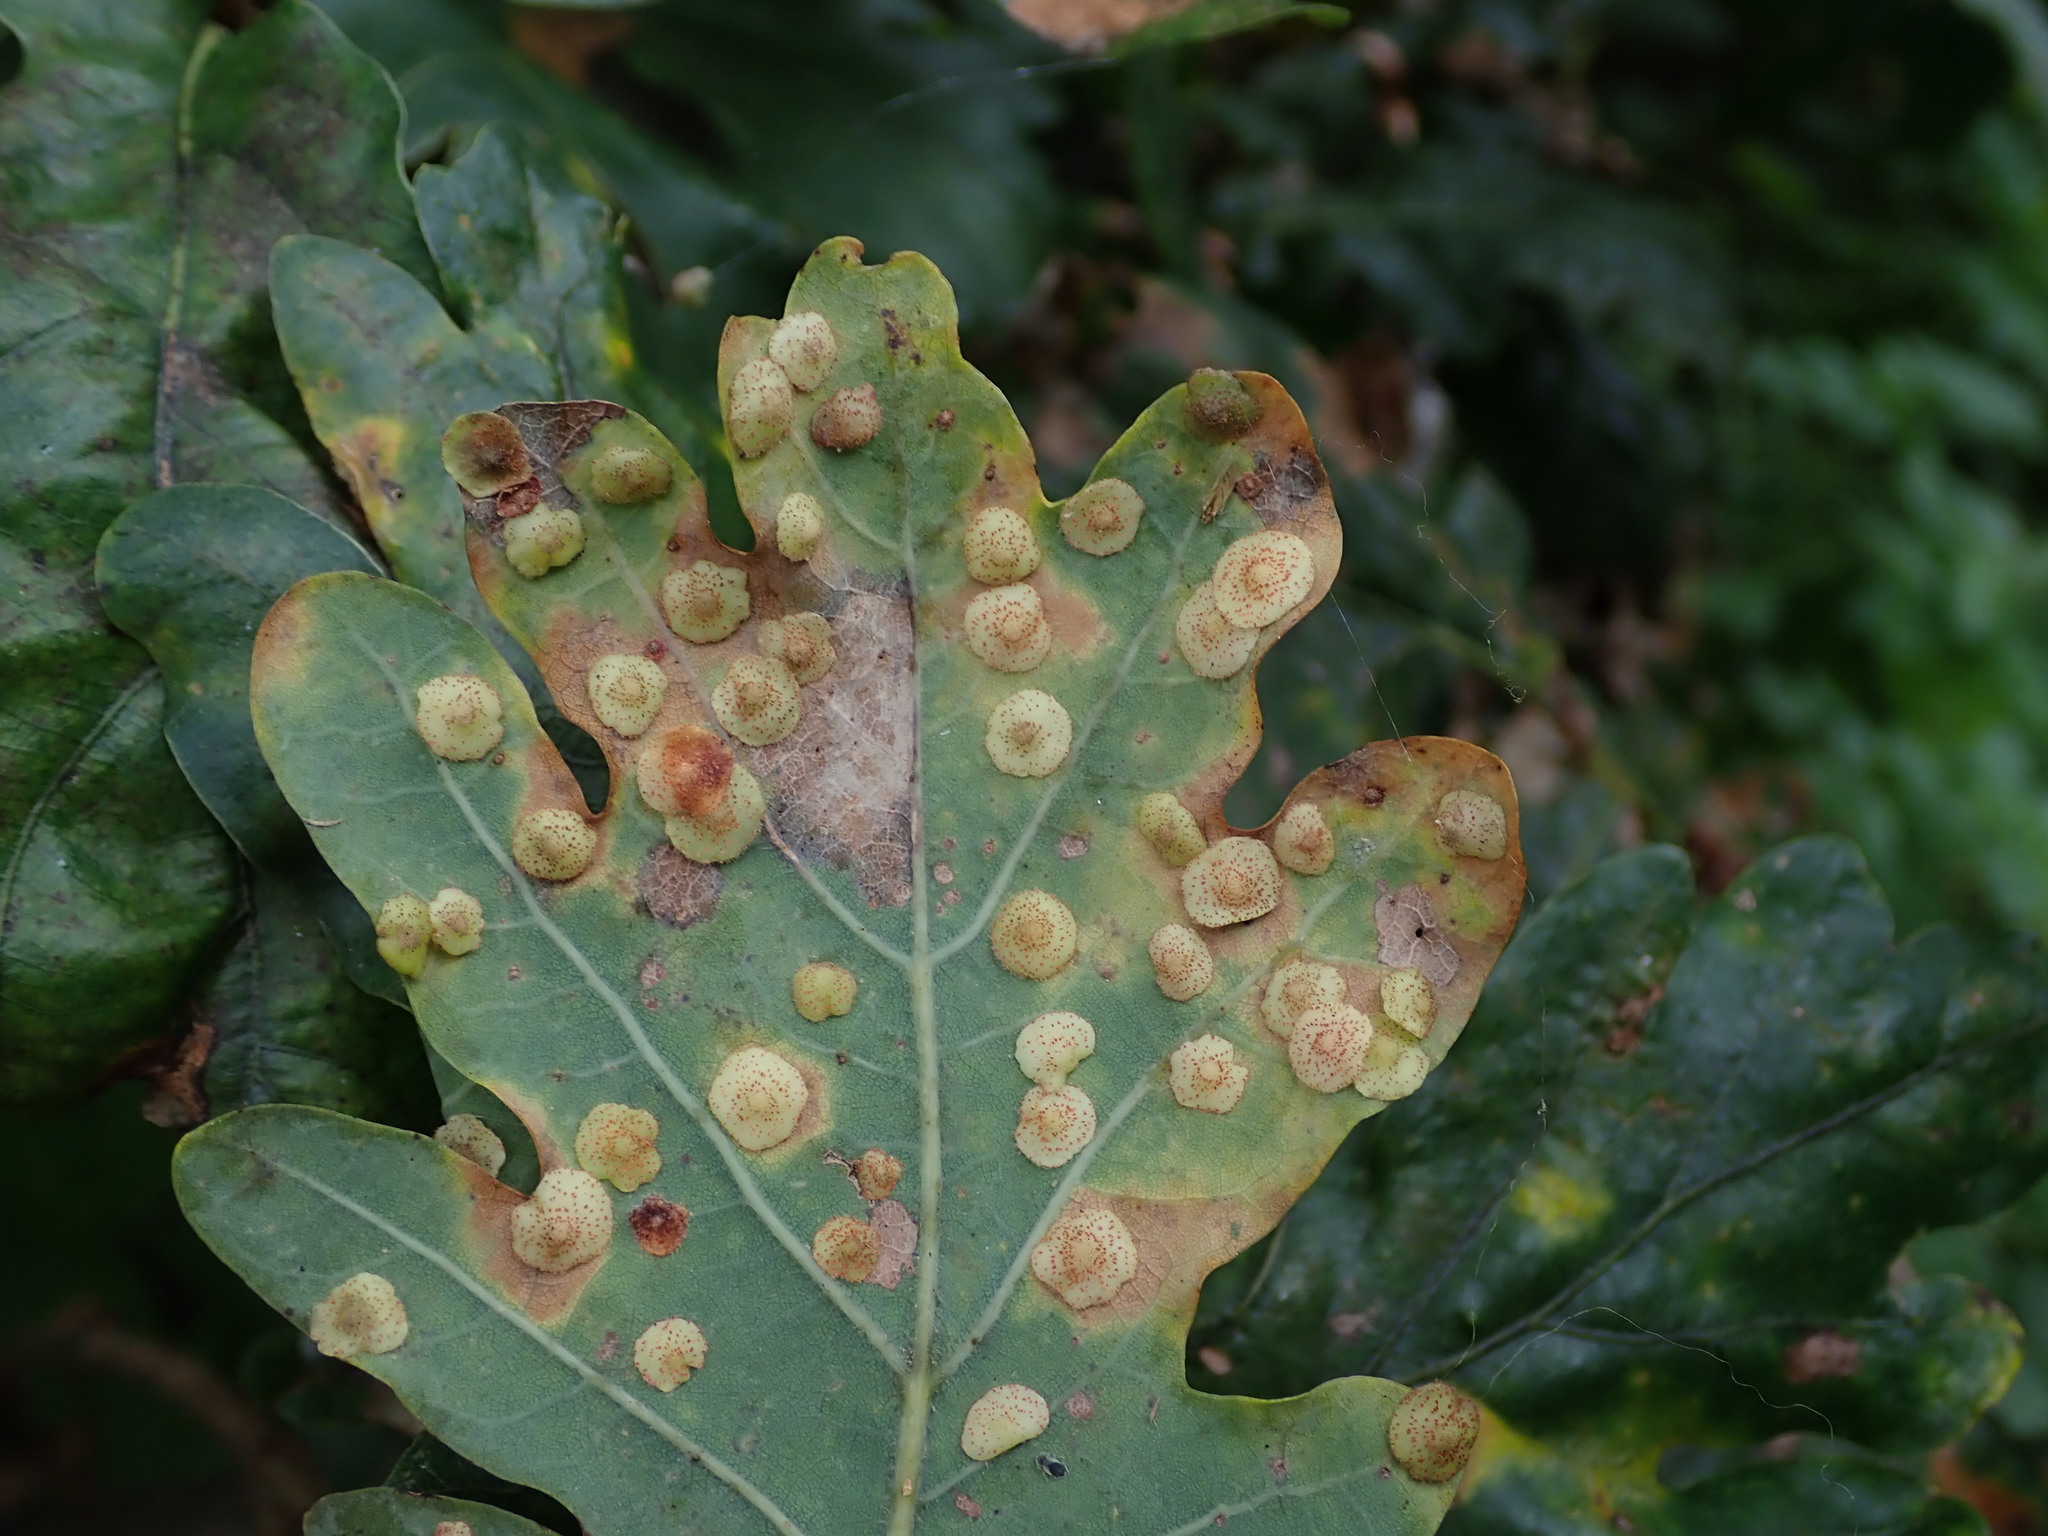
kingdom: Animalia
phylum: Arthropoda
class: Insecta
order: Hymenoptera
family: Cynipidae
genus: Neuroterus
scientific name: Neuroterus quercusbaccarum
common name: Common spangle gall
